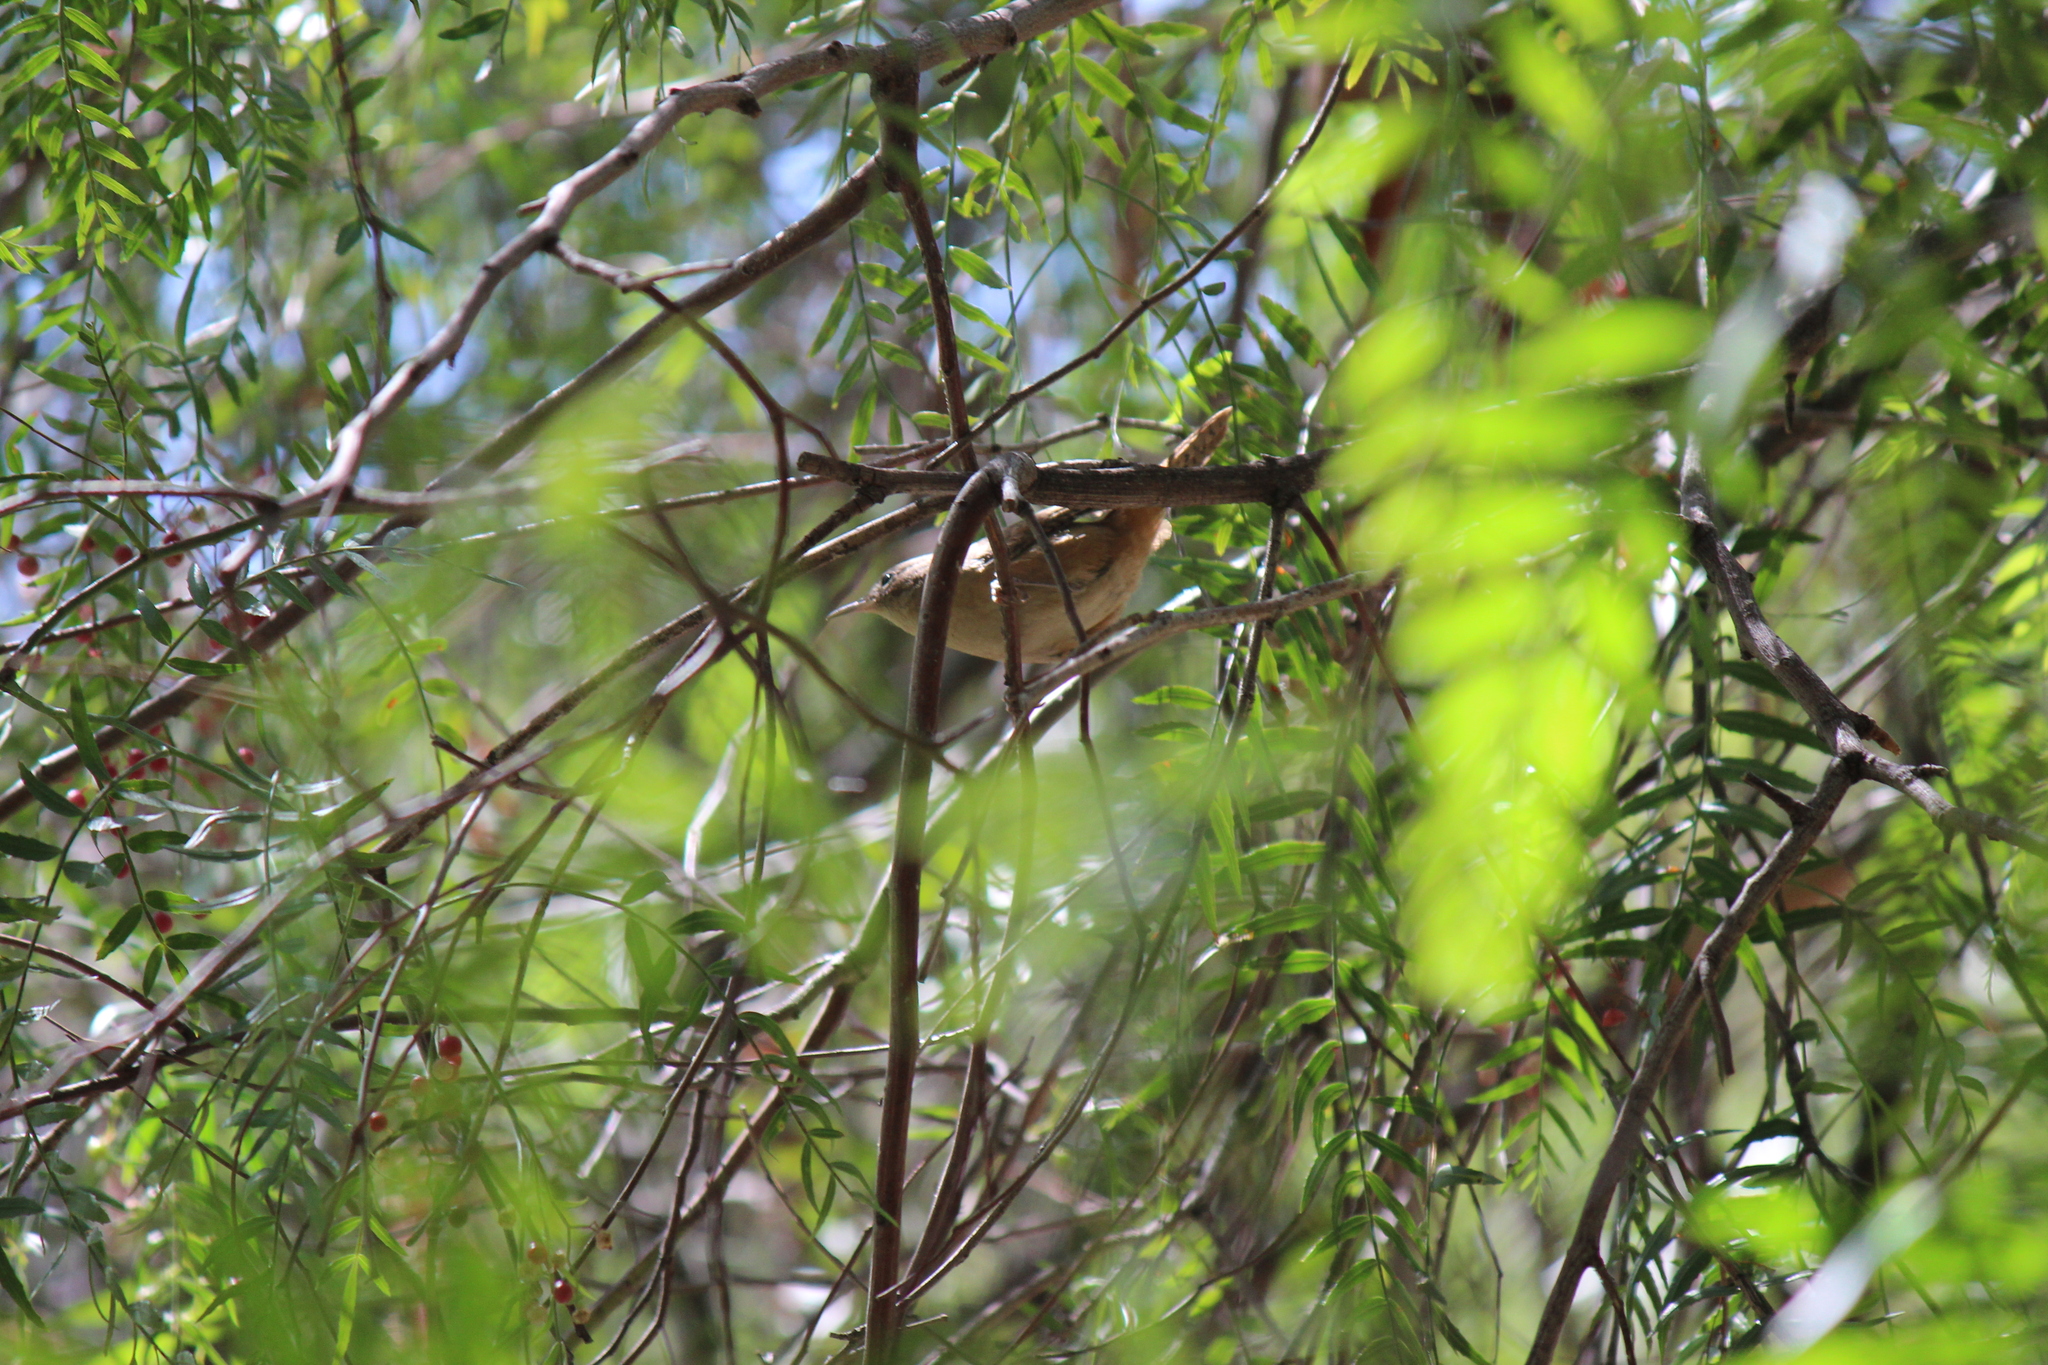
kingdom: Animalia
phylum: Chordata
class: Aves
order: Passeriformes
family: Troglodytidae
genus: Troglodytes
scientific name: Troglodytes aedon
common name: House wren
